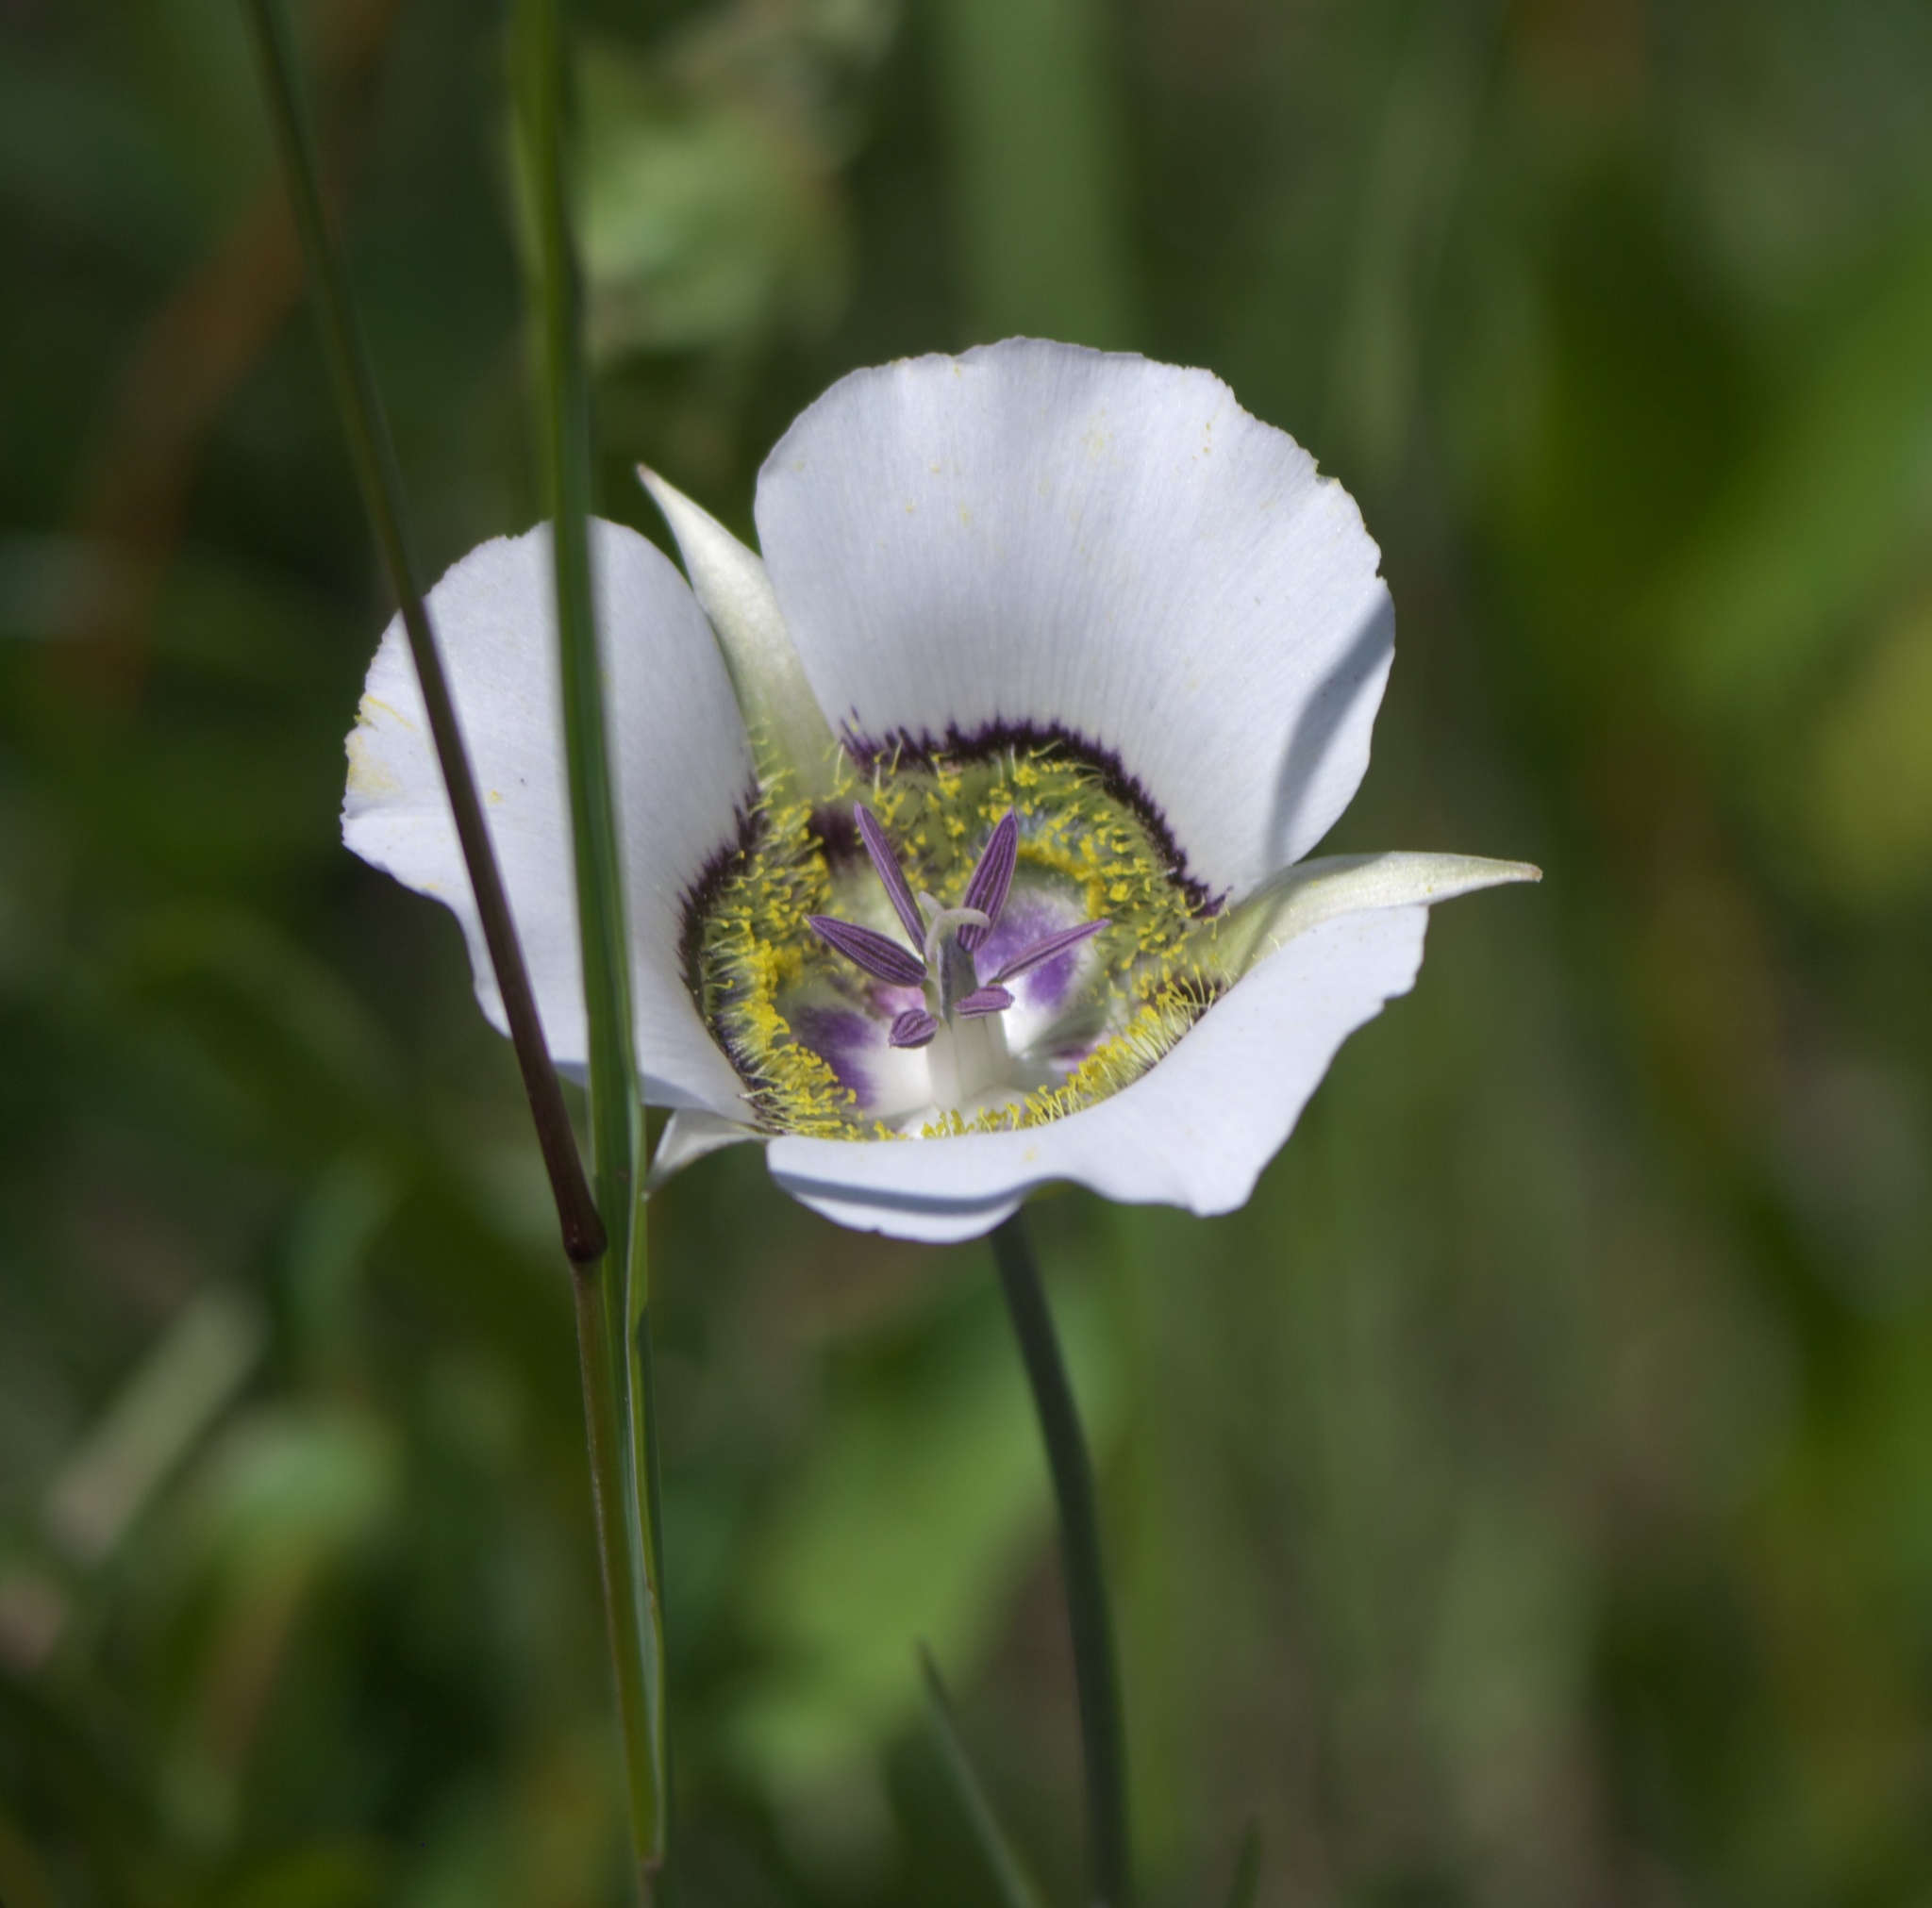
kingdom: Plantae
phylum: Tracheophyta
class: Liliopsida
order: Liliales
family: Liliaceae
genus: Calochortus
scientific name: Calochortus gunnisonii
